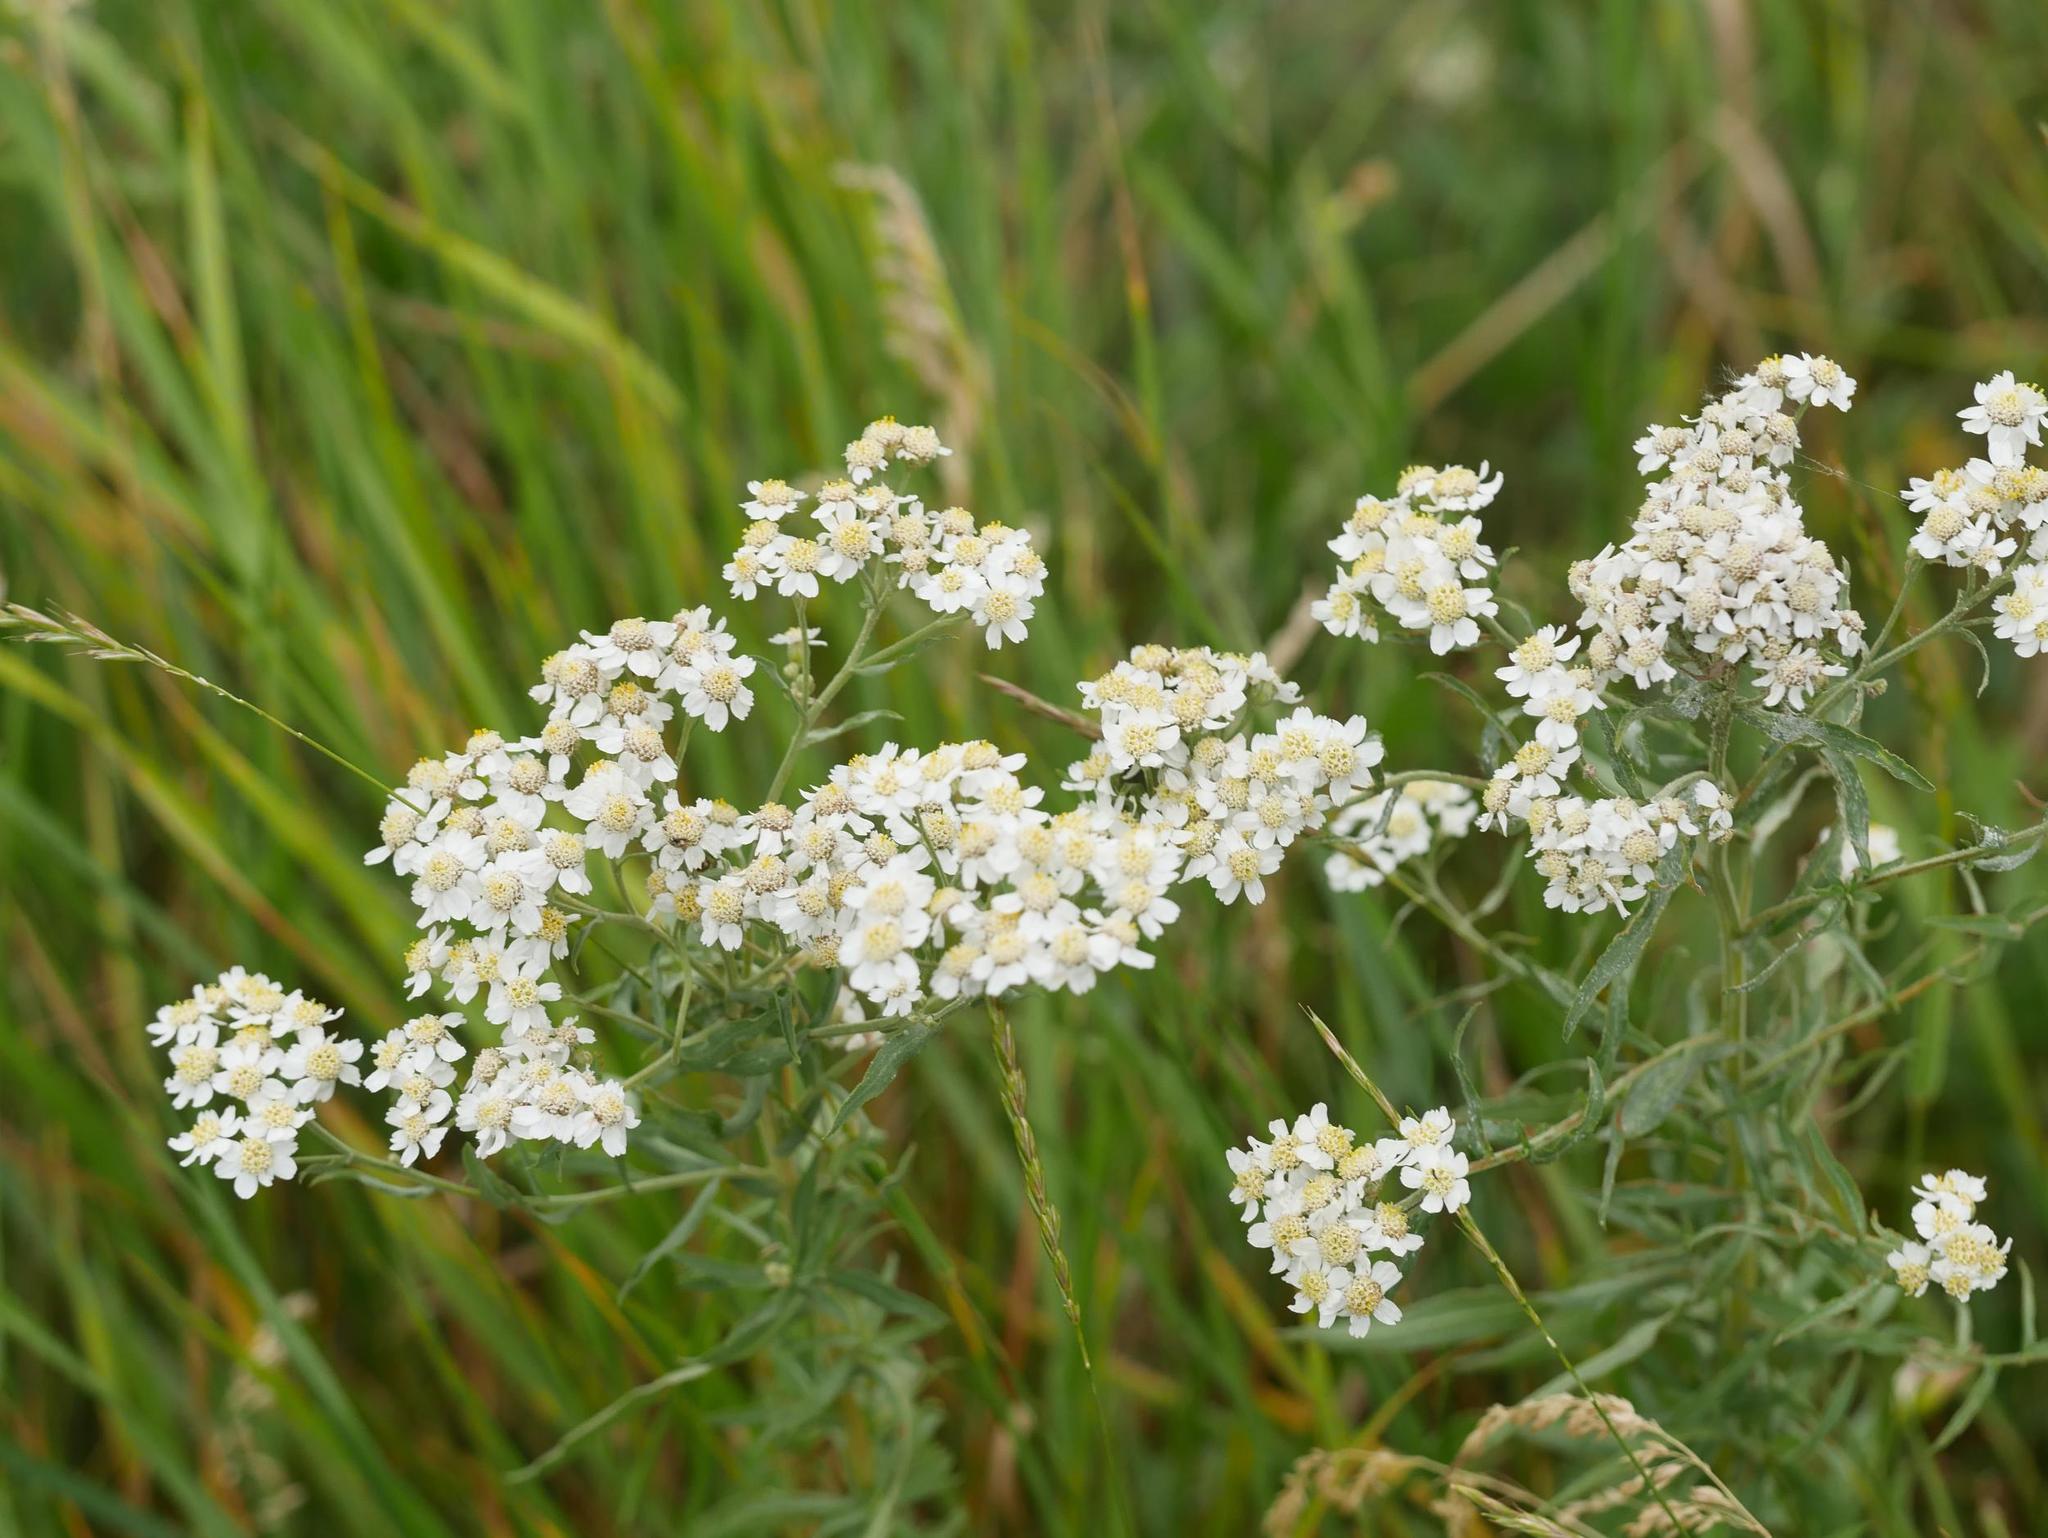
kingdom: Plantae
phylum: Tracheophyta
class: Magnoliopsida
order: Asterales
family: Asteraceae
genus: Achillea
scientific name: Achillea ptarmica
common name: Sneezeweed
